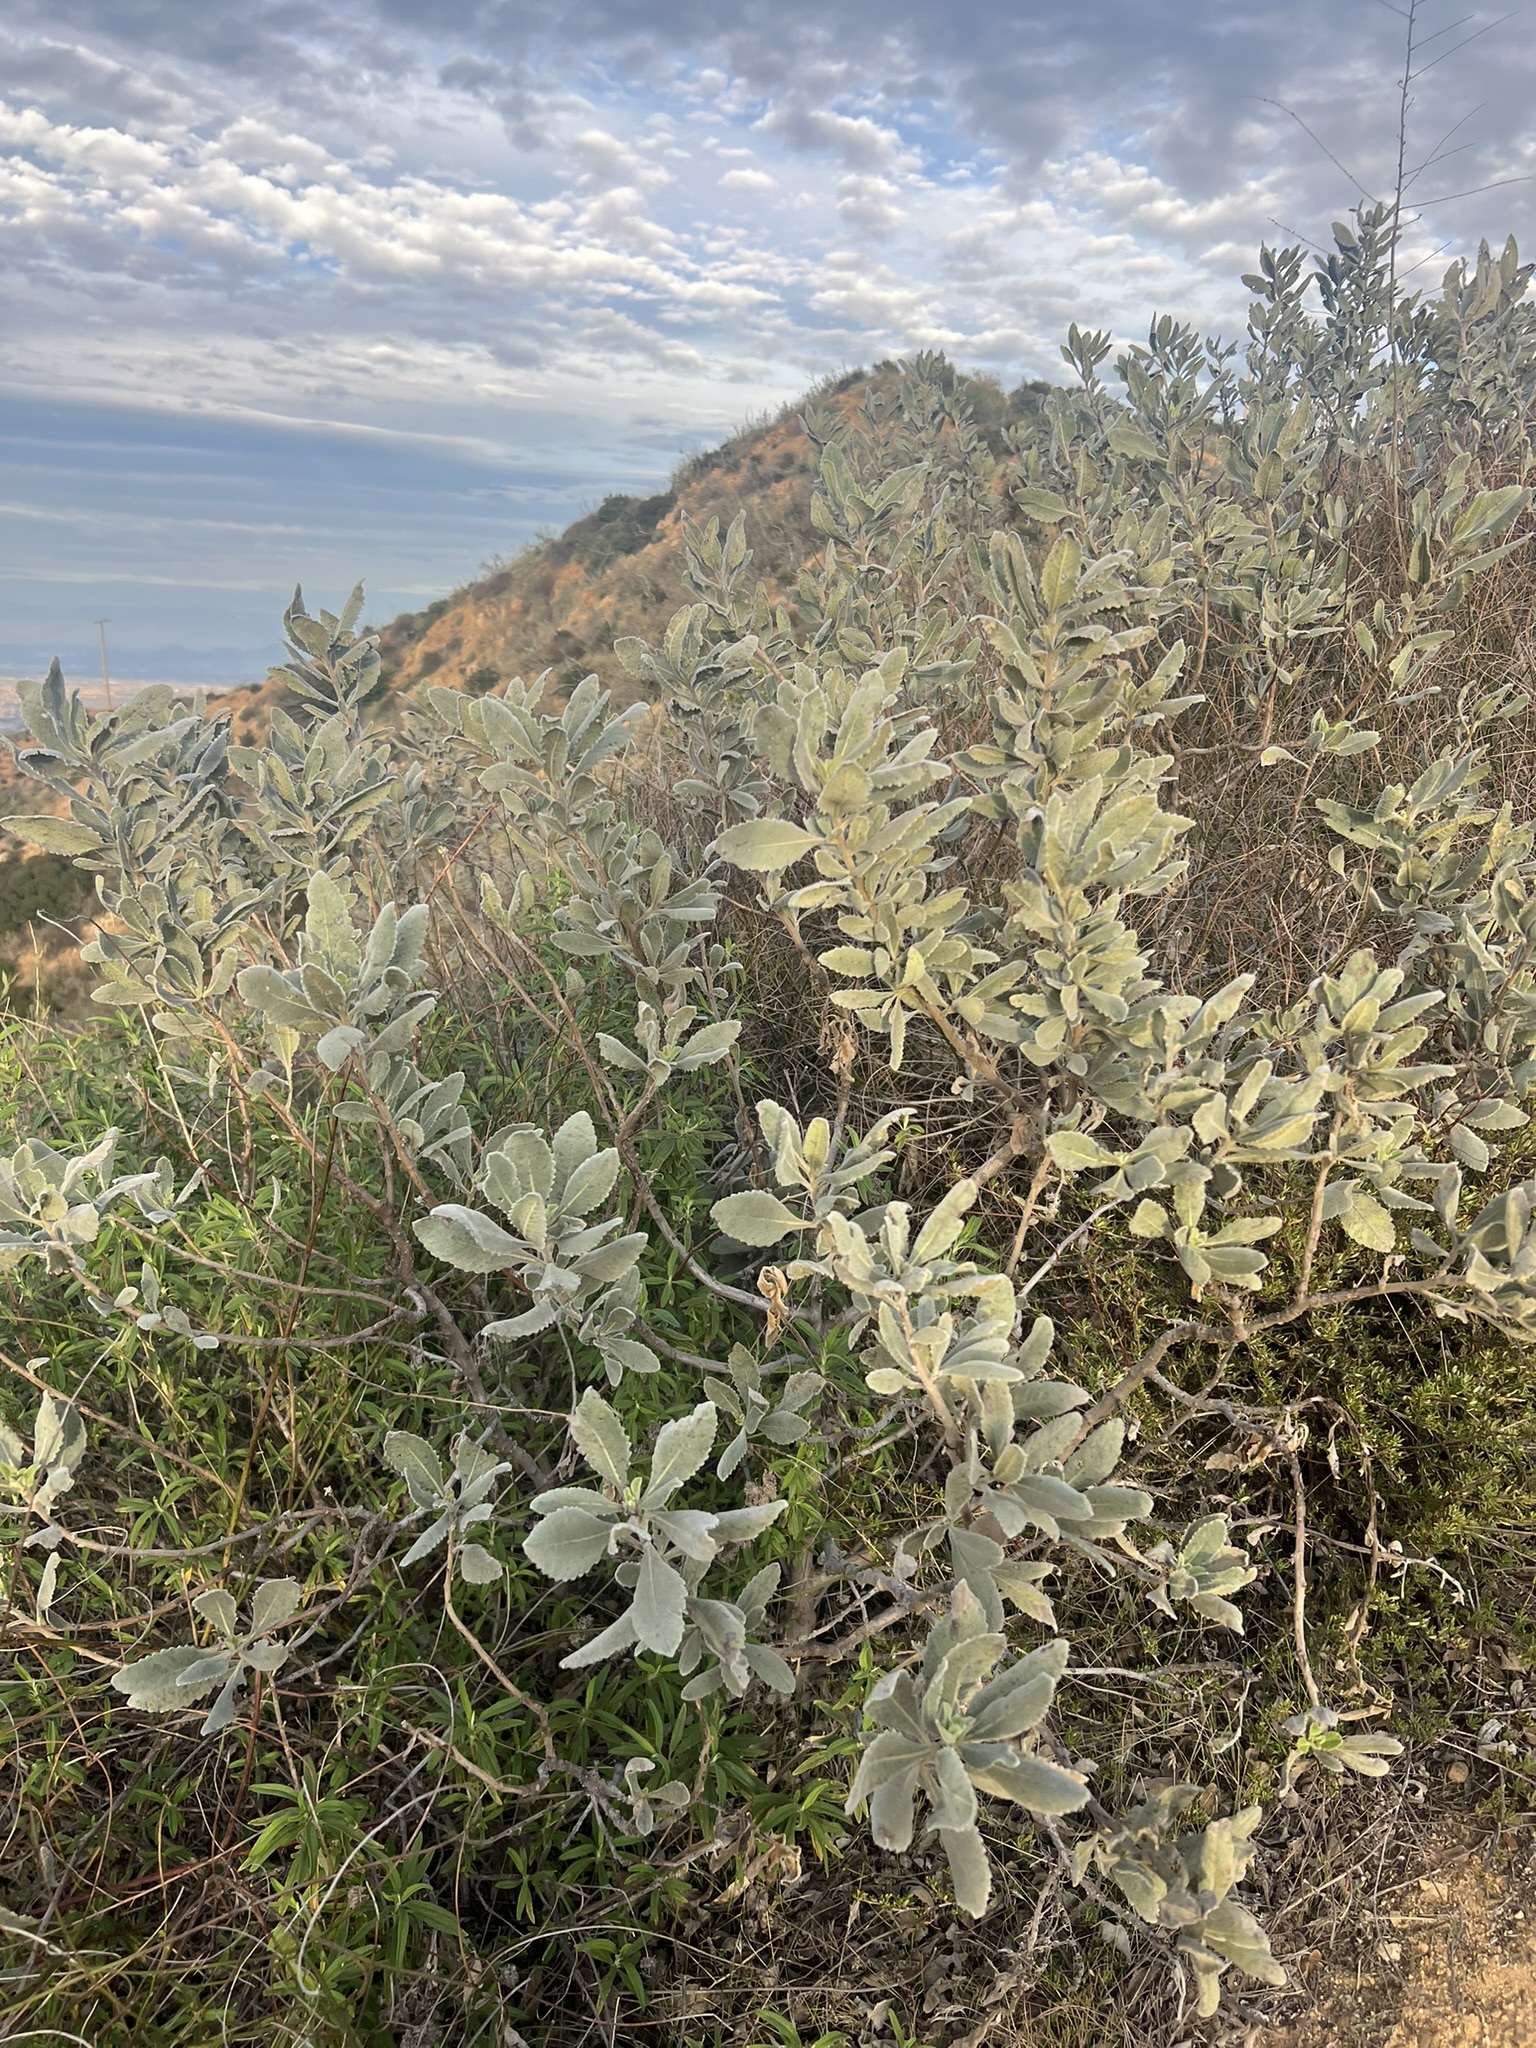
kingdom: Plantae
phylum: Tracheophyta
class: Magnoliopsida
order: Boraginales
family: Namaceae
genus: Eriodictyon
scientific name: Eriodictyon crassifolium
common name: Thick-leaf yerba-santa
